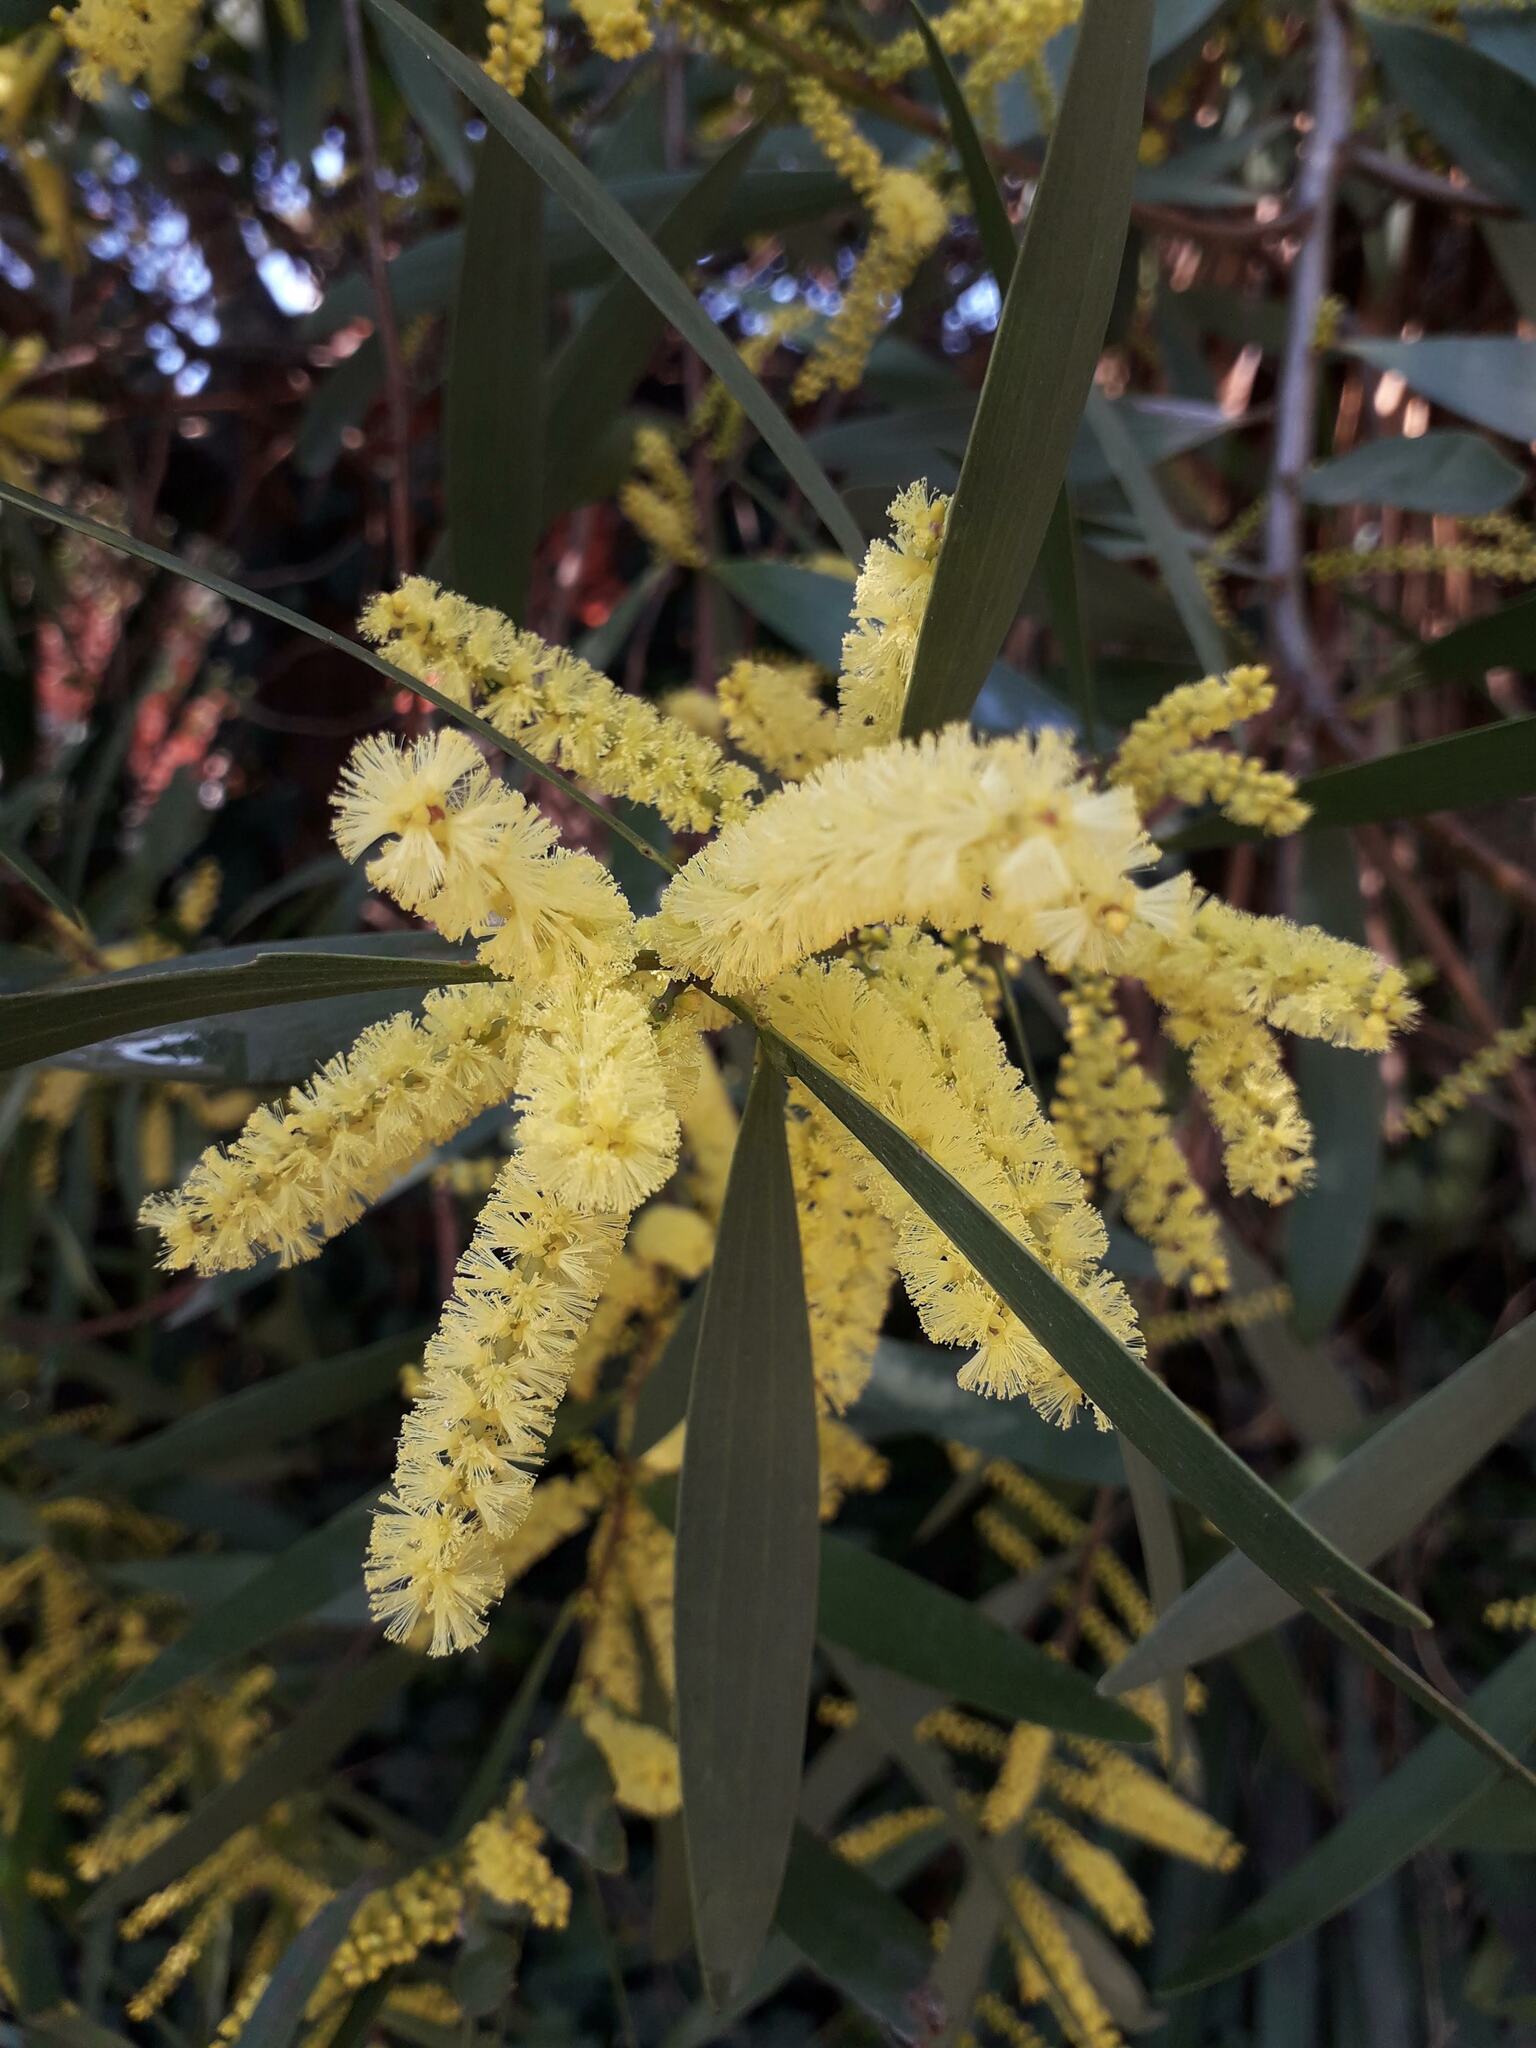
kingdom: Plantae
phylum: Tracheophyta
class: Magnoliopsida
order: Fabales
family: Fabaceae
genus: Acacia
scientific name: Acacia longifolia
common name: Sydney golden wattle
